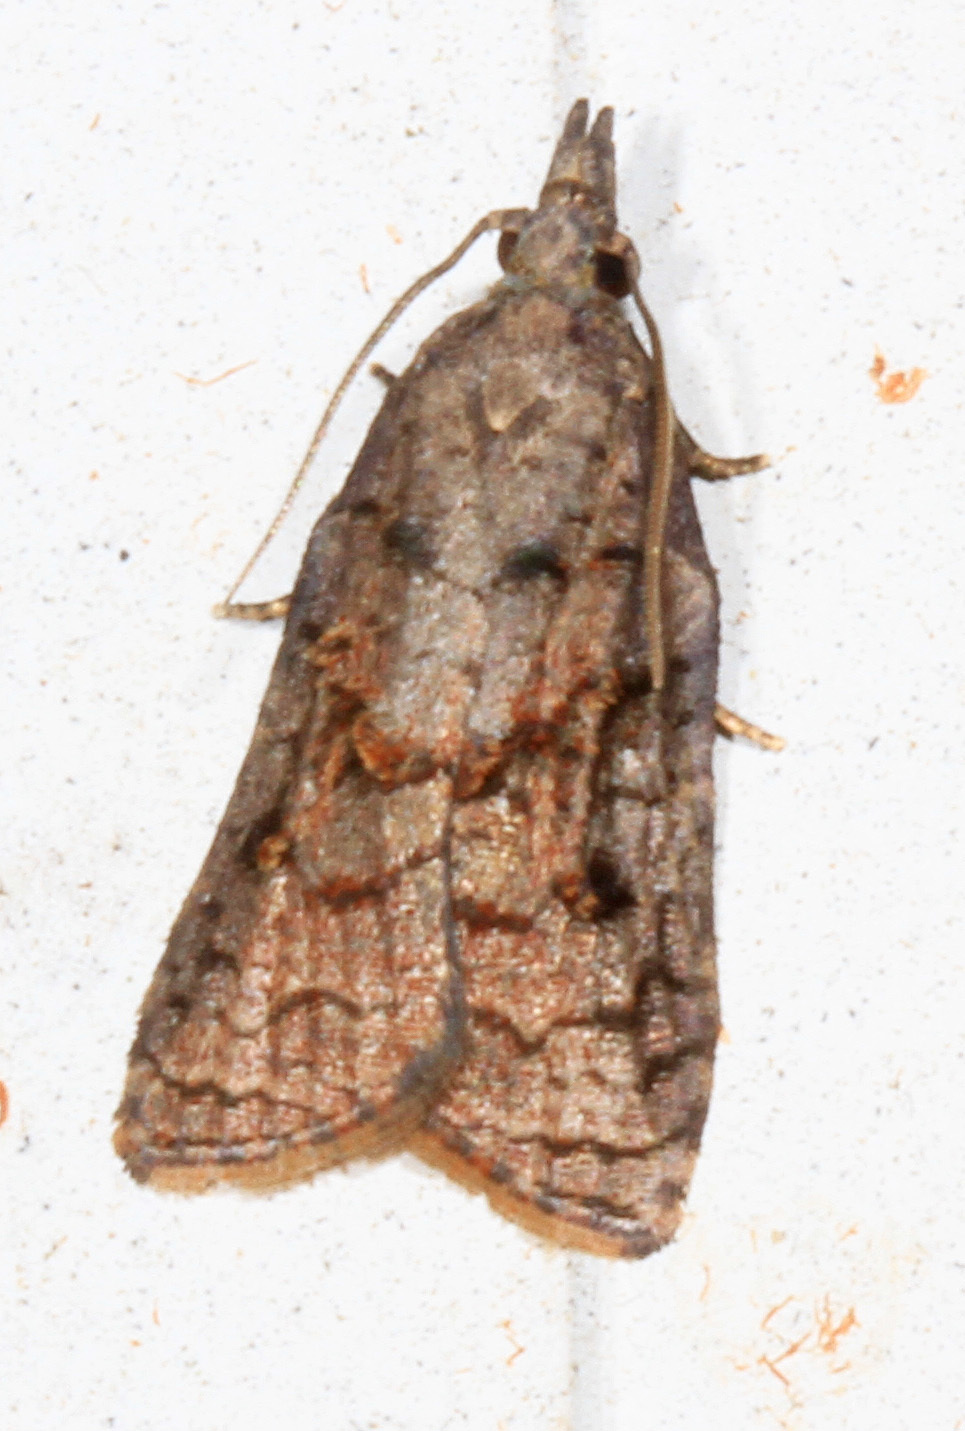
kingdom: Animalia
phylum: Arthropoda
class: Insecta
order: Lepidoptera
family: Tortricidae
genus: Platynota
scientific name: Platynota idaeusalis
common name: Tufted apple bud moth
